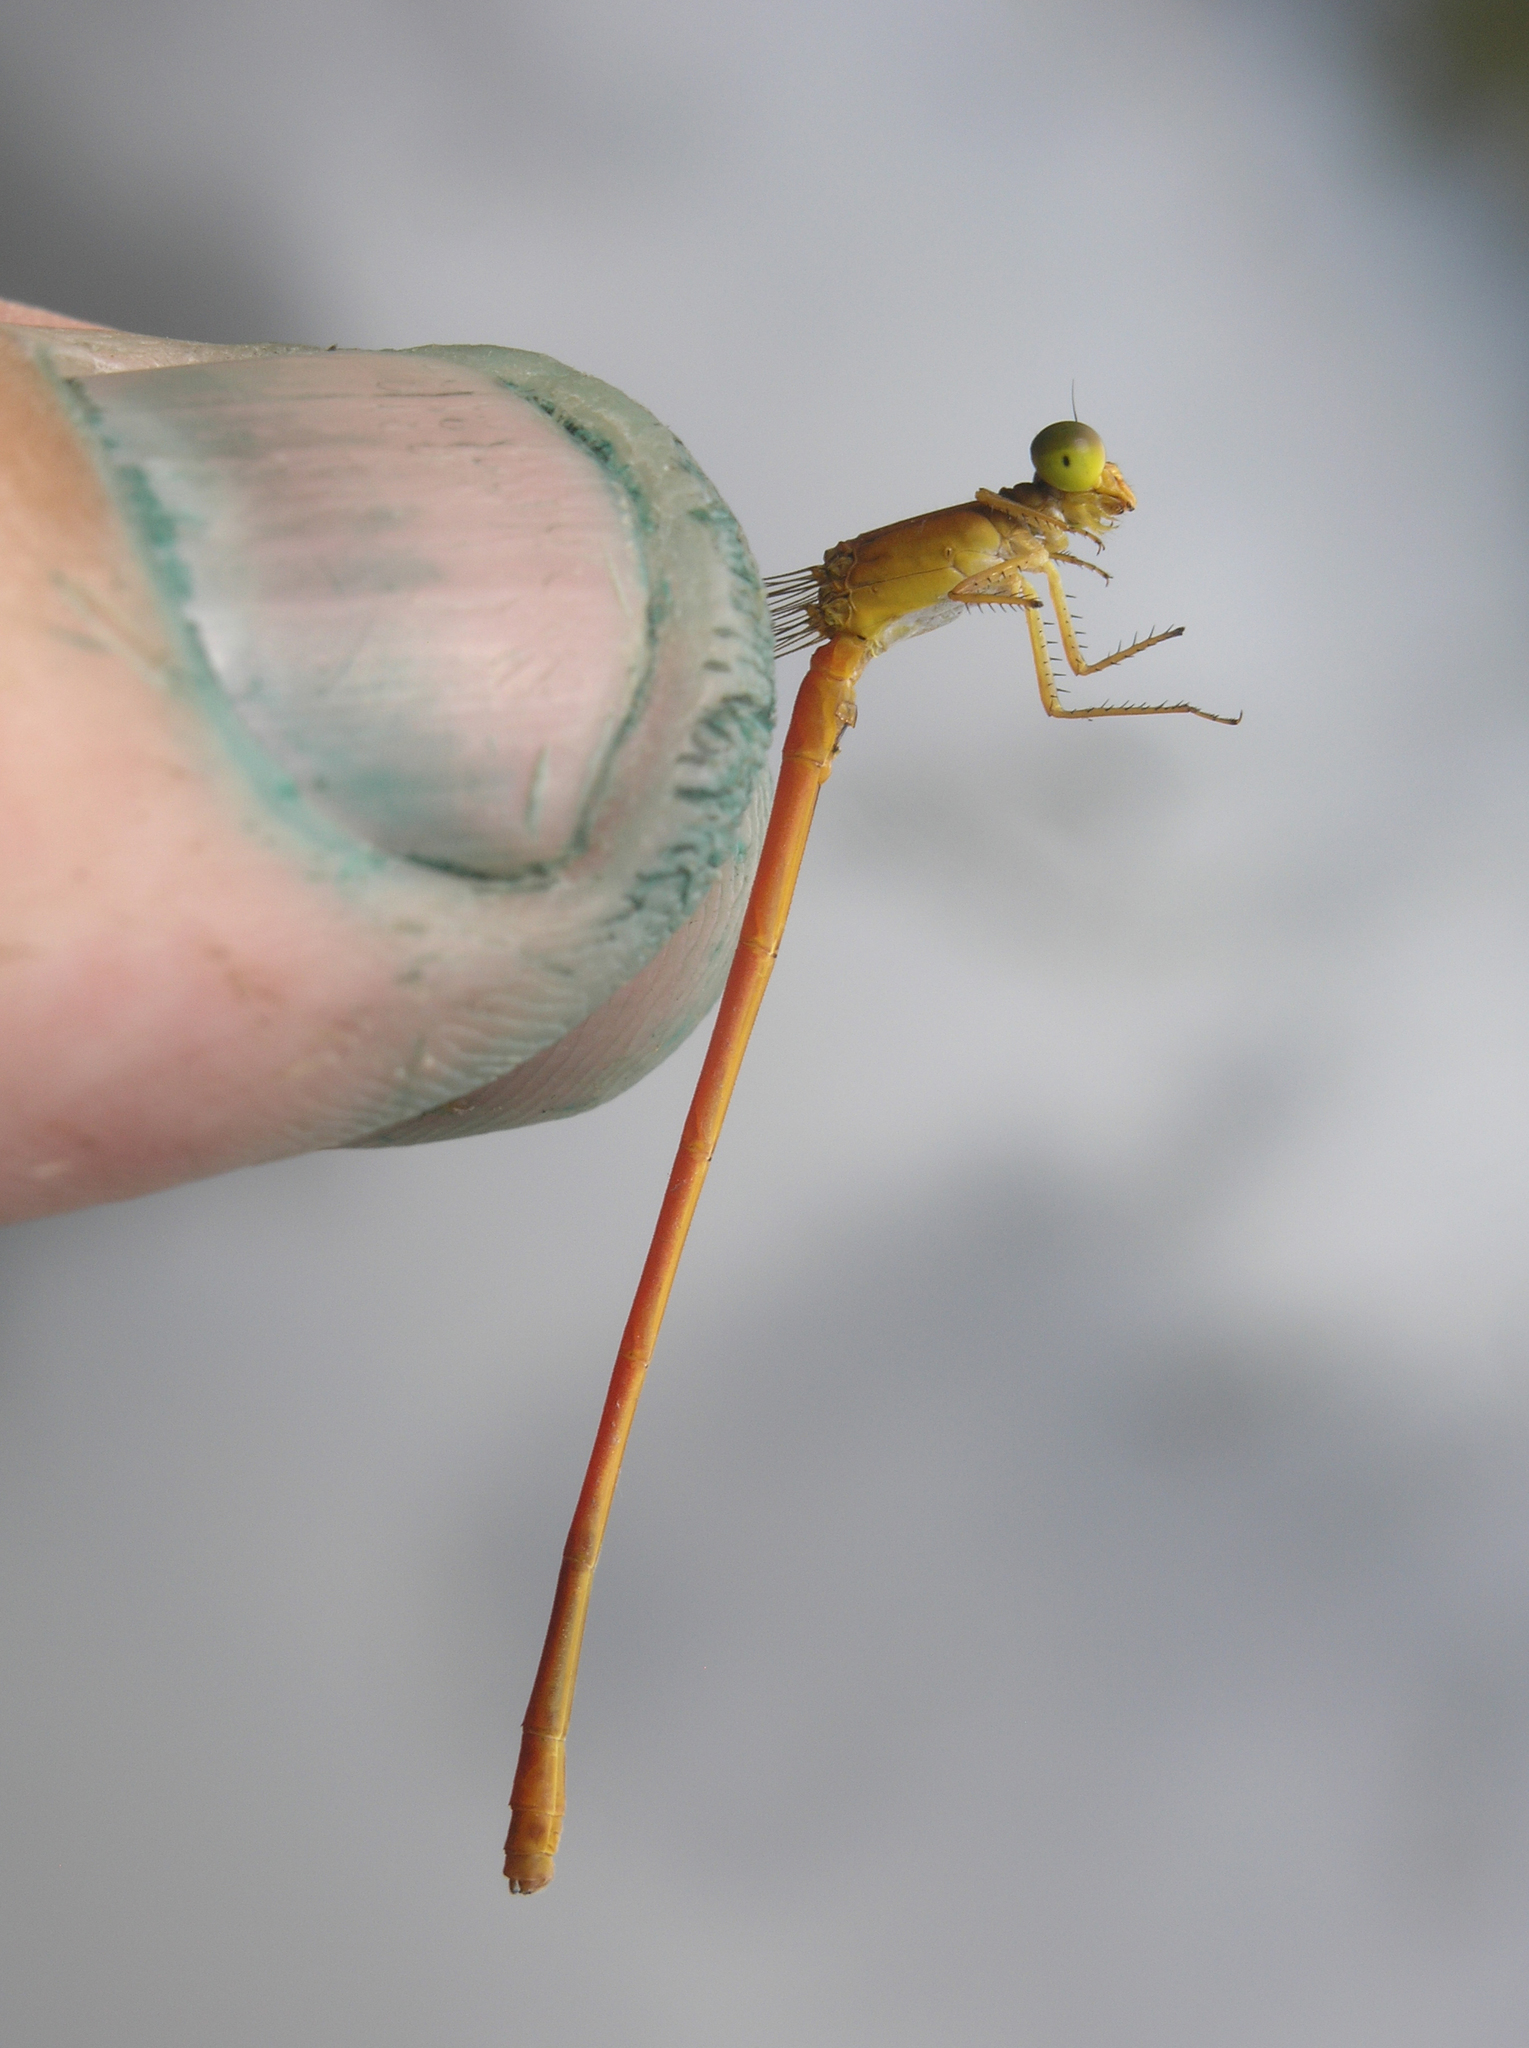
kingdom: Animalia
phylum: Arthropoda
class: Insecta
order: Odonata
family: Coenagrionidae
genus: Ceriagrion
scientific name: Ceriagrion malaisei
